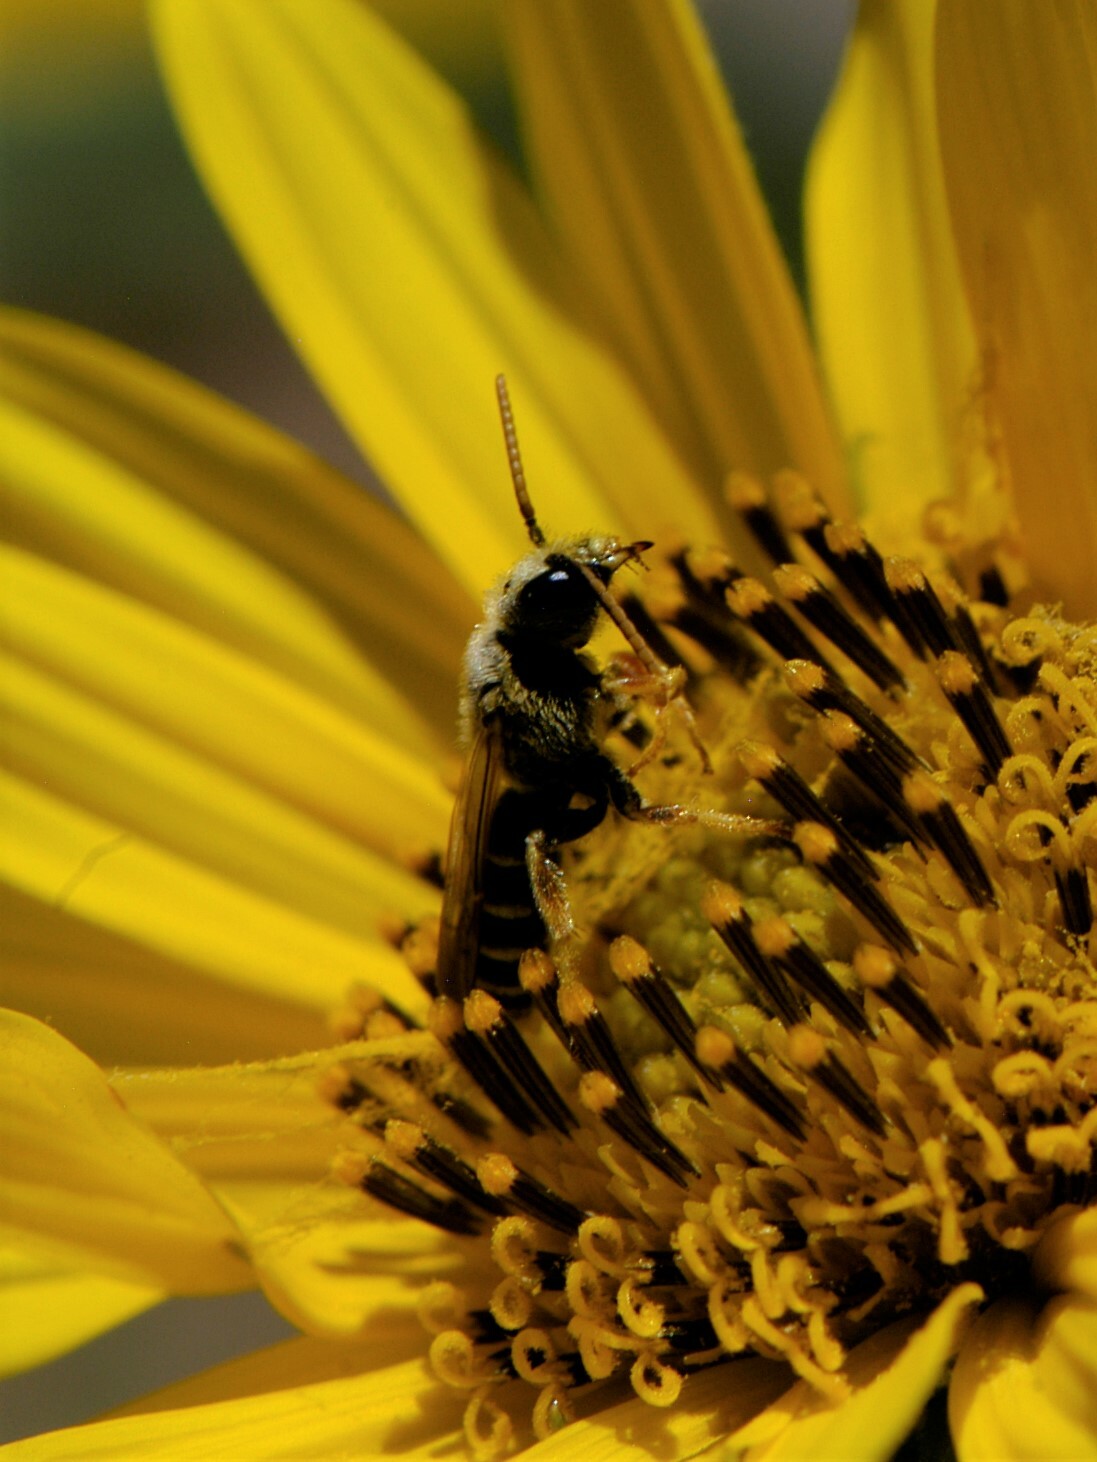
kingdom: Animalia
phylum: Arthropoda
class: Insecta
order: Hymenoptera
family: Halictidae
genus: Halictus
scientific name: Halictus ligatus
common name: Ligated furrow bee
